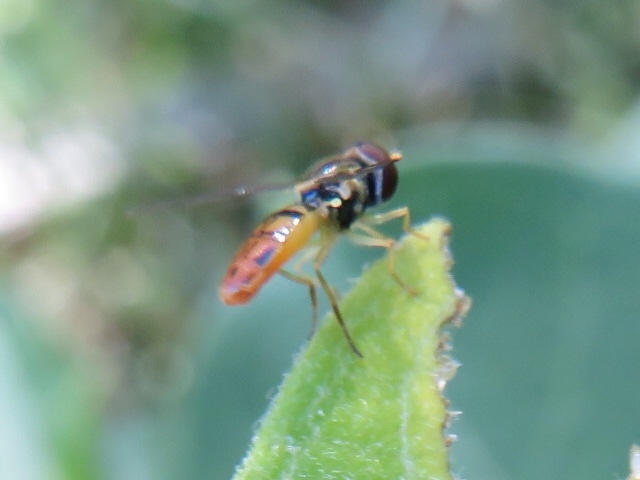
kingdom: Animalia
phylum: Arthropoda
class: Insecta
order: Diptera
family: Syrphidae
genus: Toxomerus
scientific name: Toxomerus marginatus
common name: Syrphid fly
